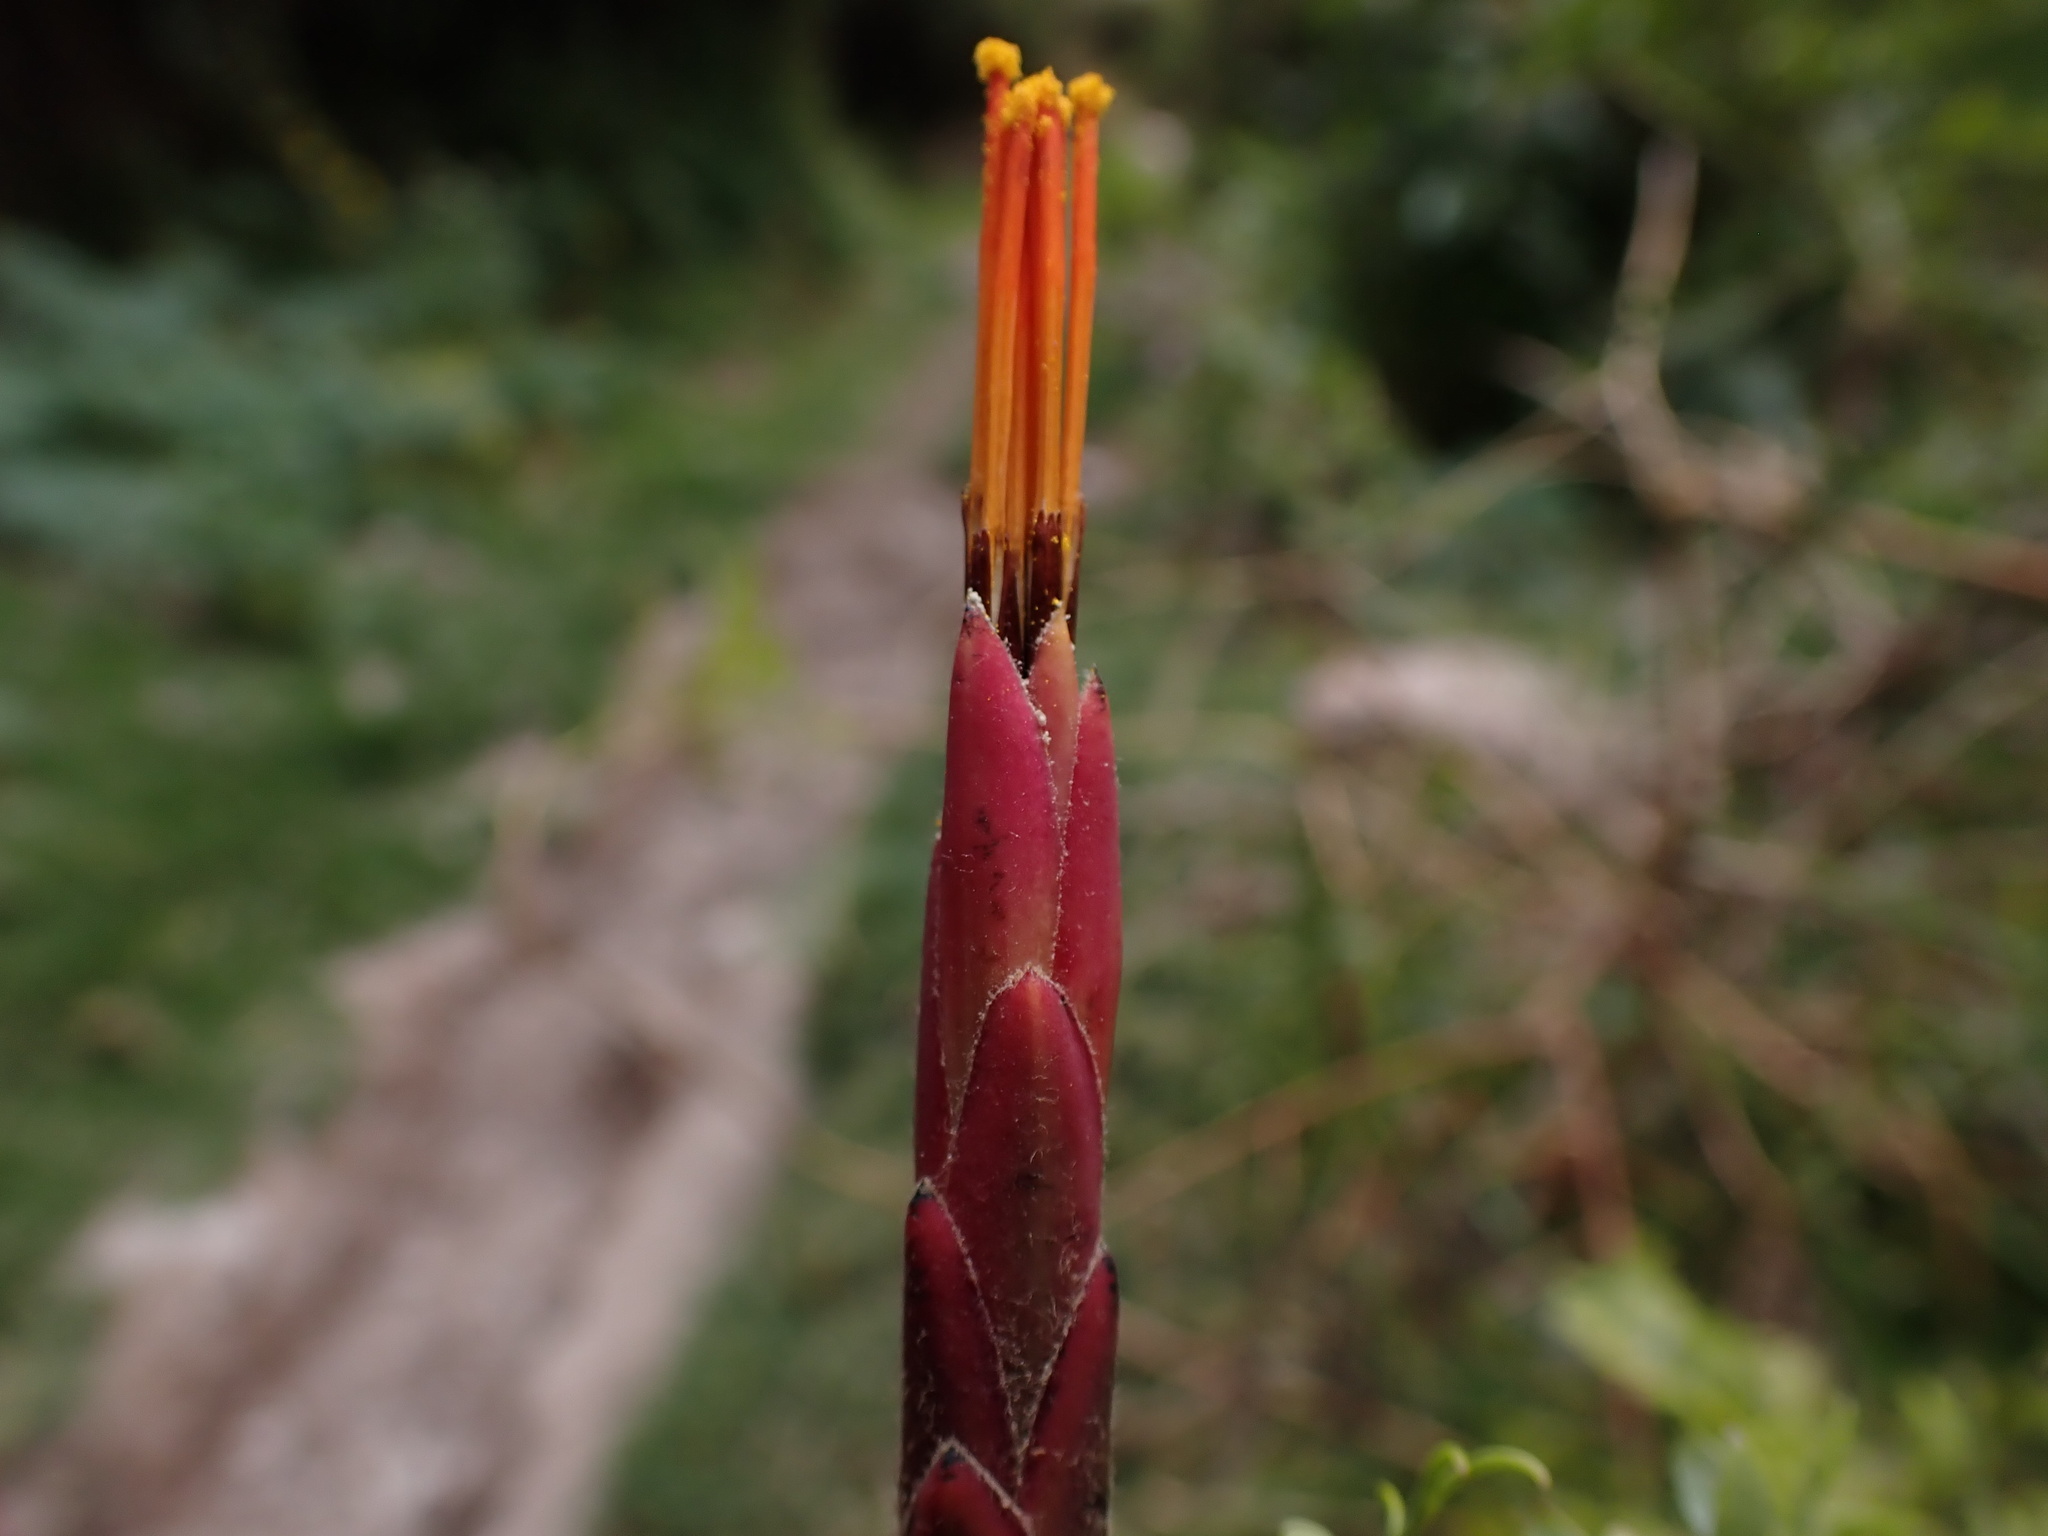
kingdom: Plantae
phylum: Tracheophyta
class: Magnoliopsida
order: Asterales
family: Asteraceae
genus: Mutisia
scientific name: Mutisia acuminata
